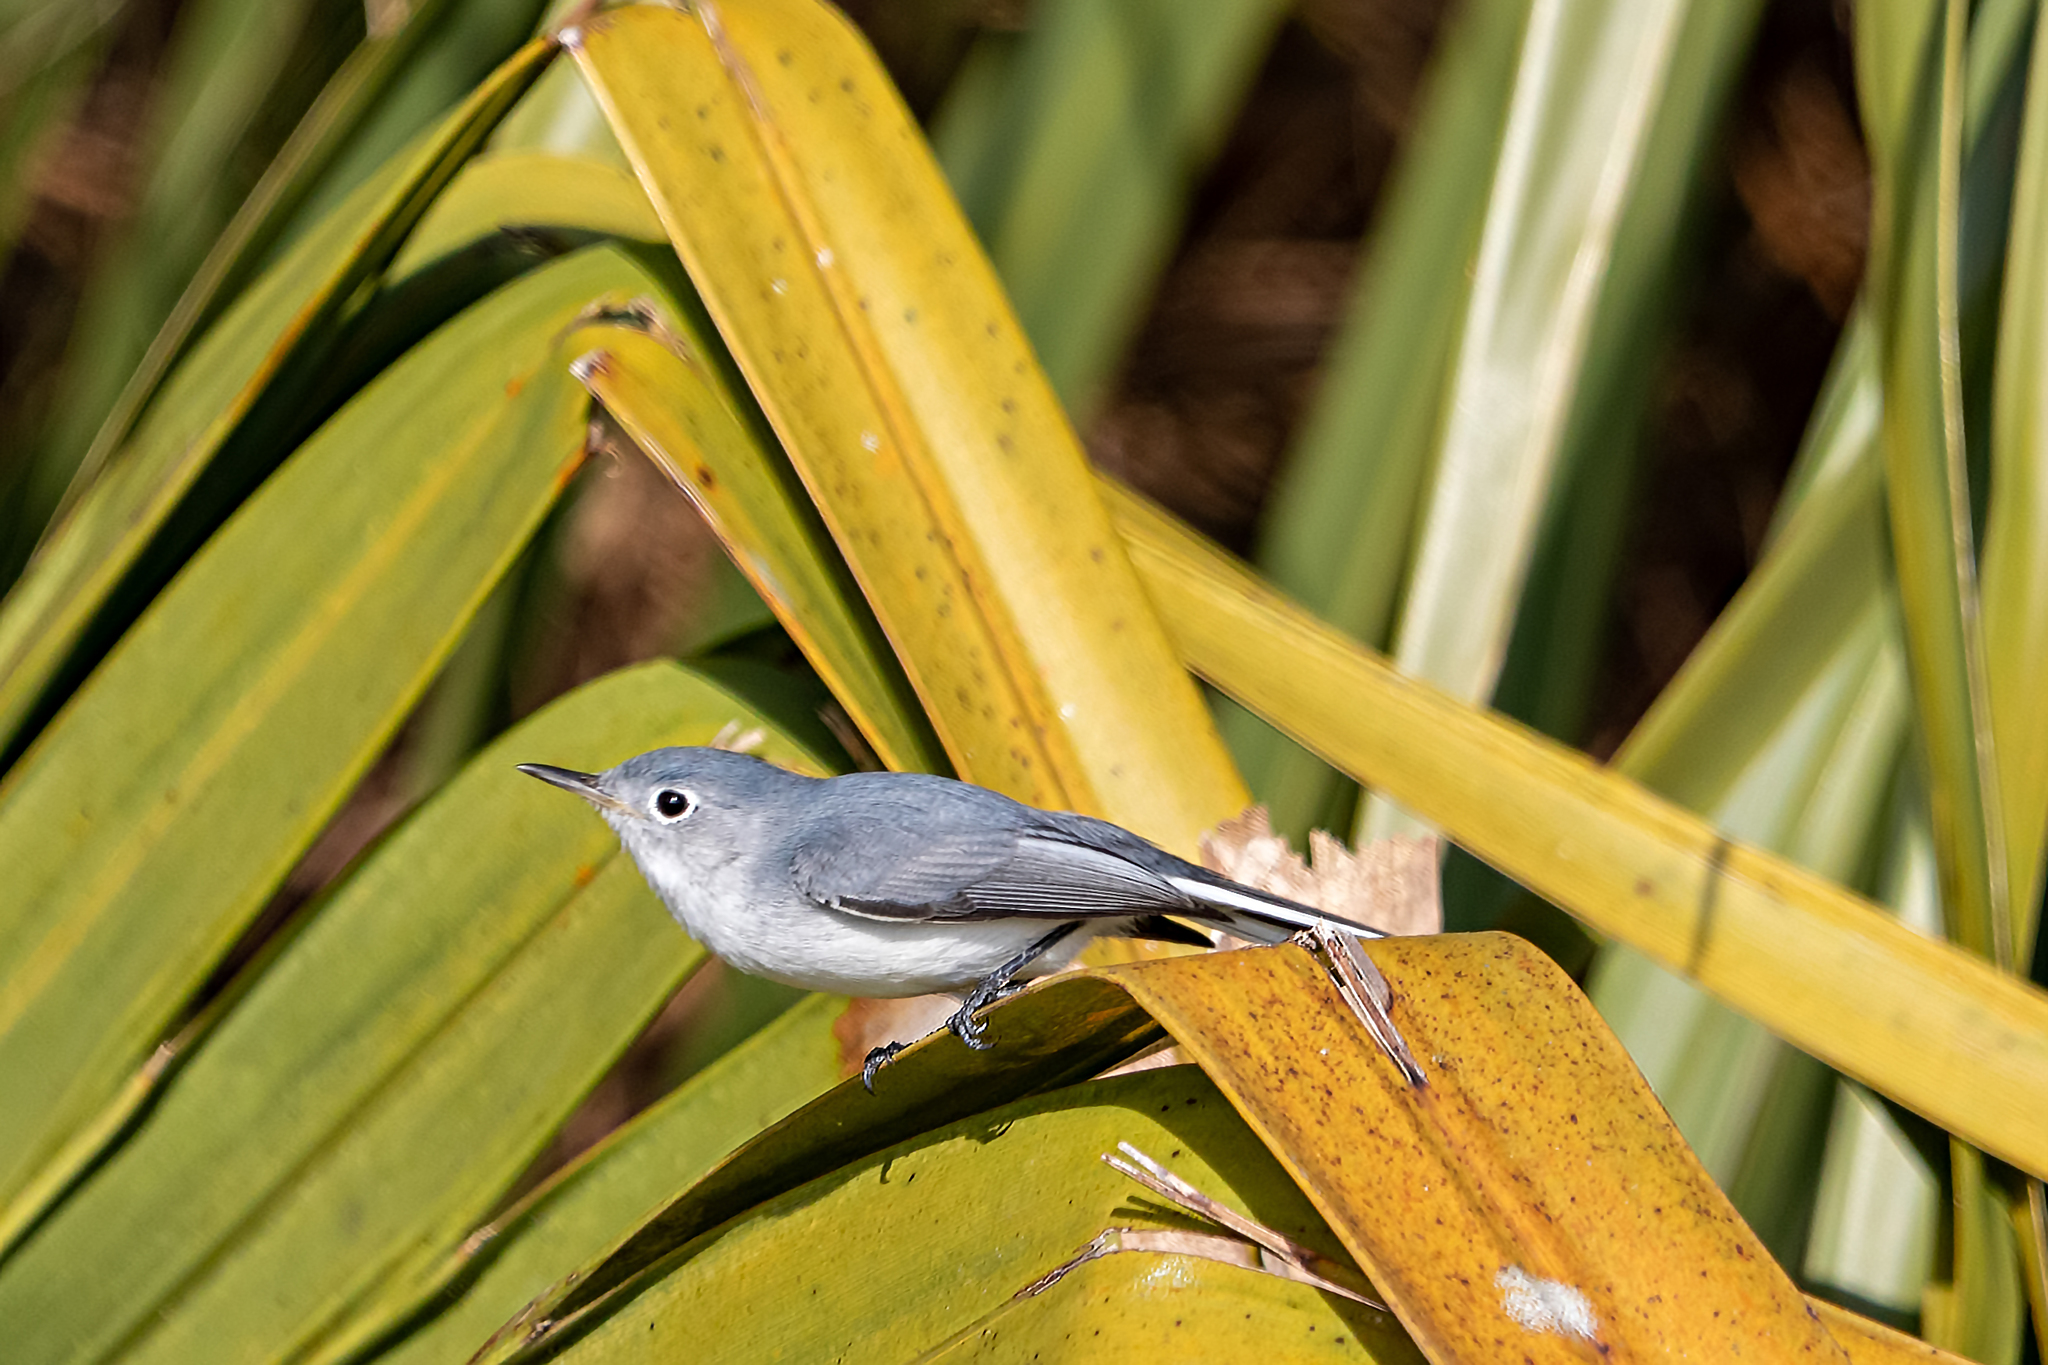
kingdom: Animalia
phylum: Chordata
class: Aves
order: Passeriformes
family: Polioptilidae
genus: Polioptila
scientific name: Polioptila caerulea
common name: Blue-gray gnatcatcher
